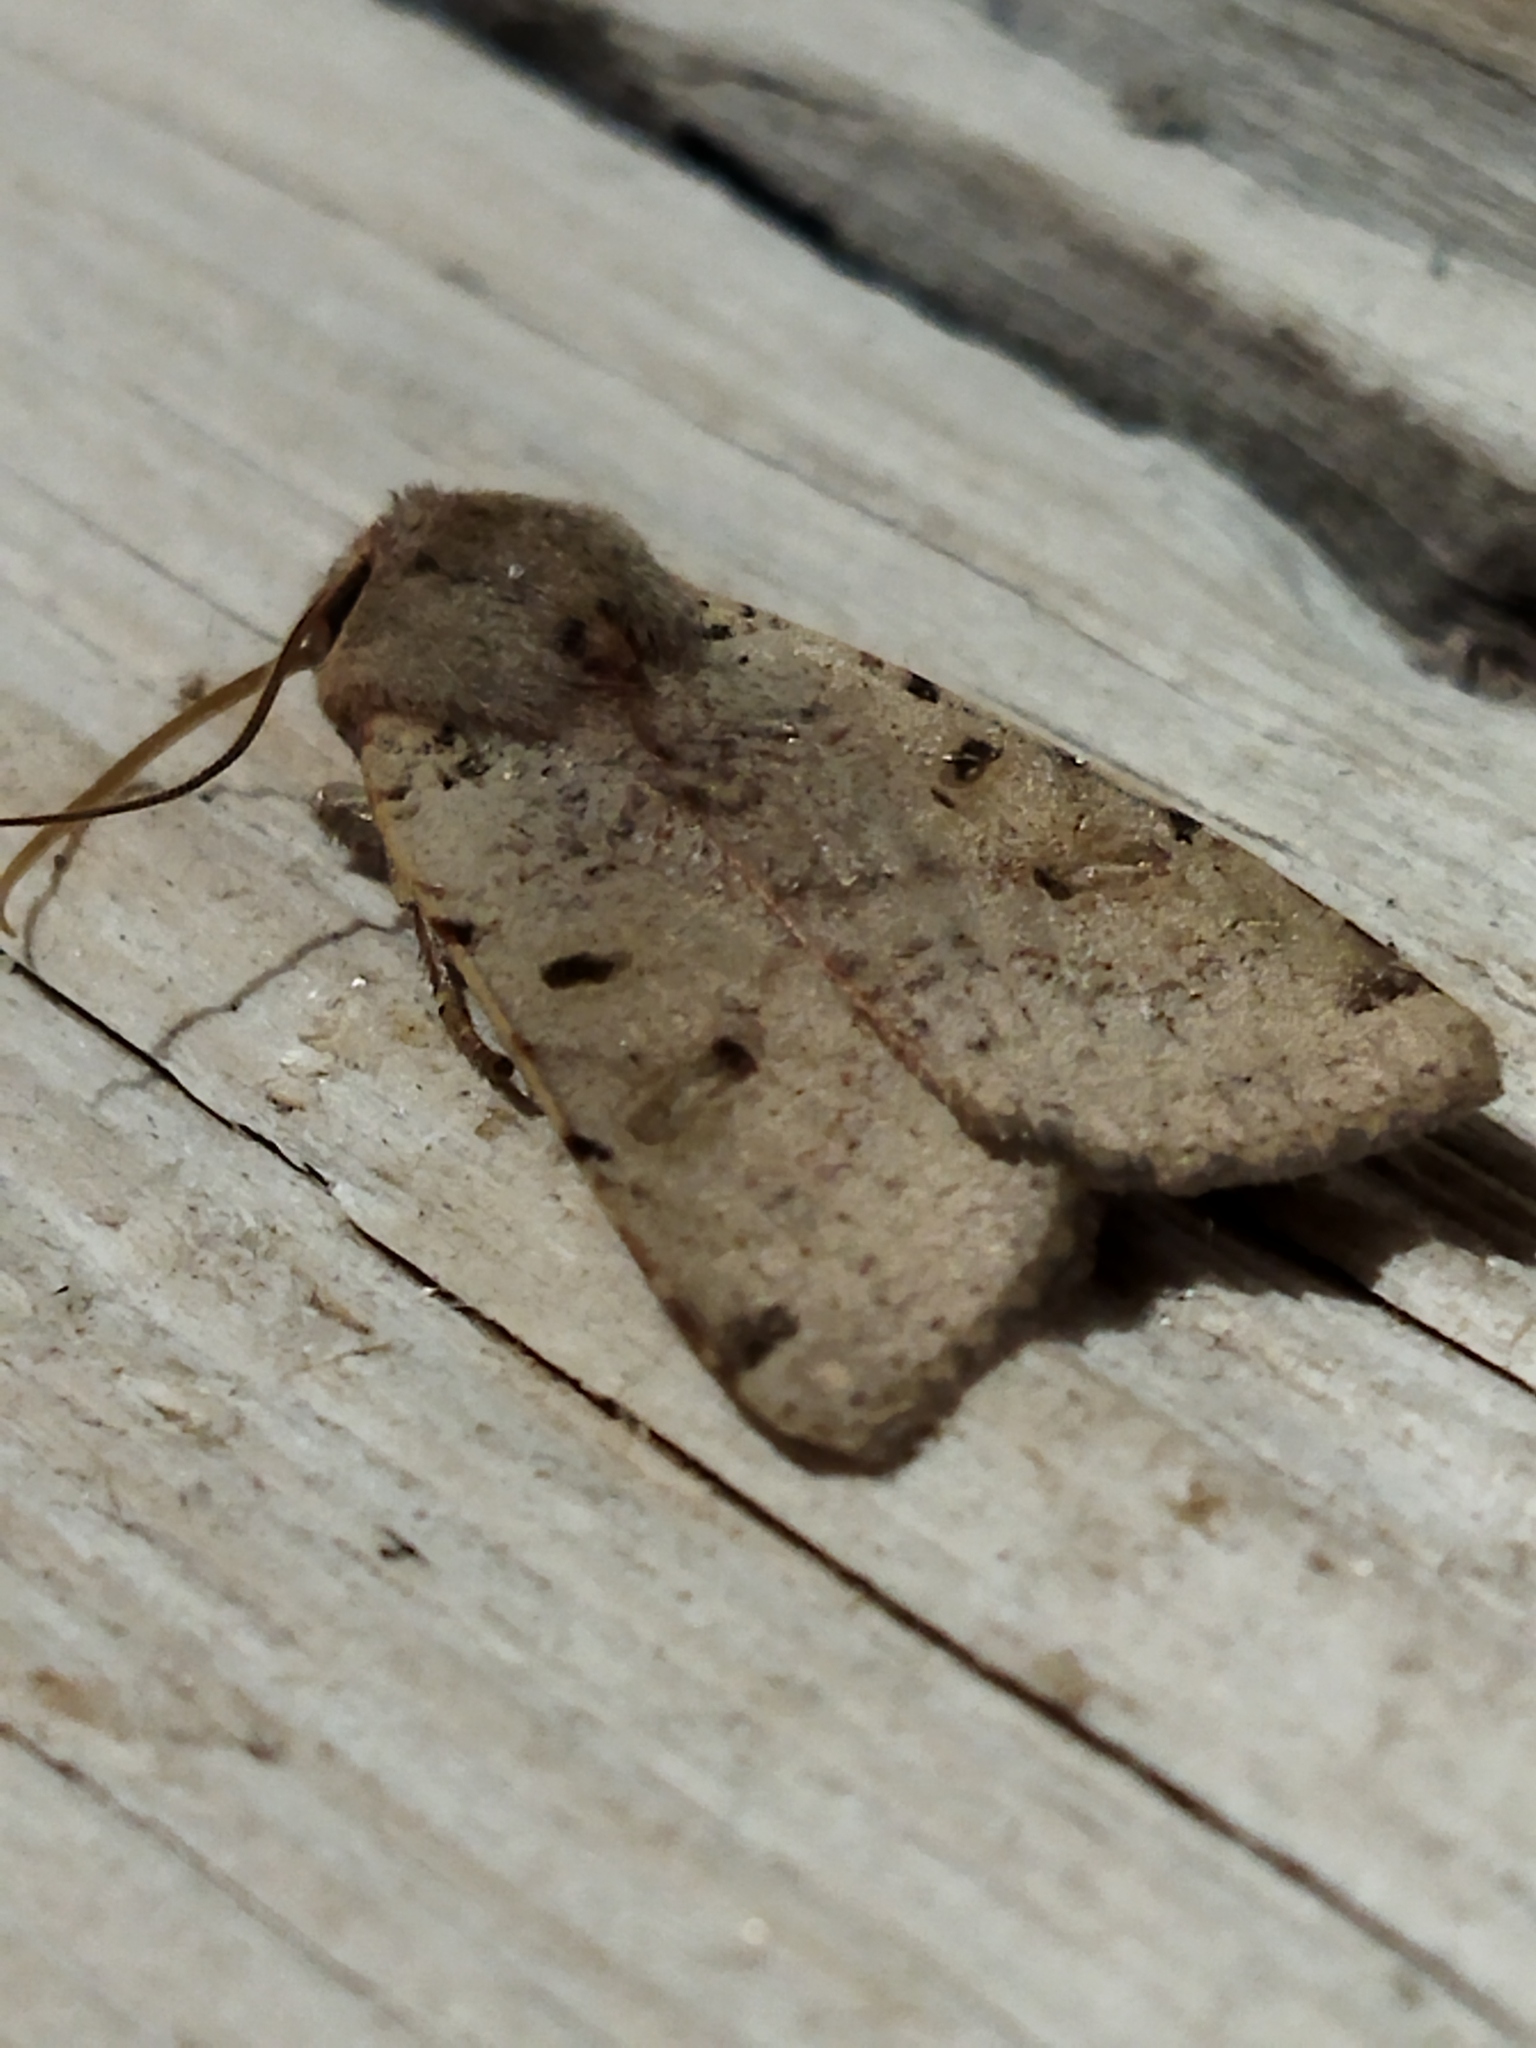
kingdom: Animalia
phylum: Arthropoda
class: Insecta
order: Lepidoptera
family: Noctuidae
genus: Agrochola
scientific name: Agrochola lychnidis
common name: Beaded chestnut
